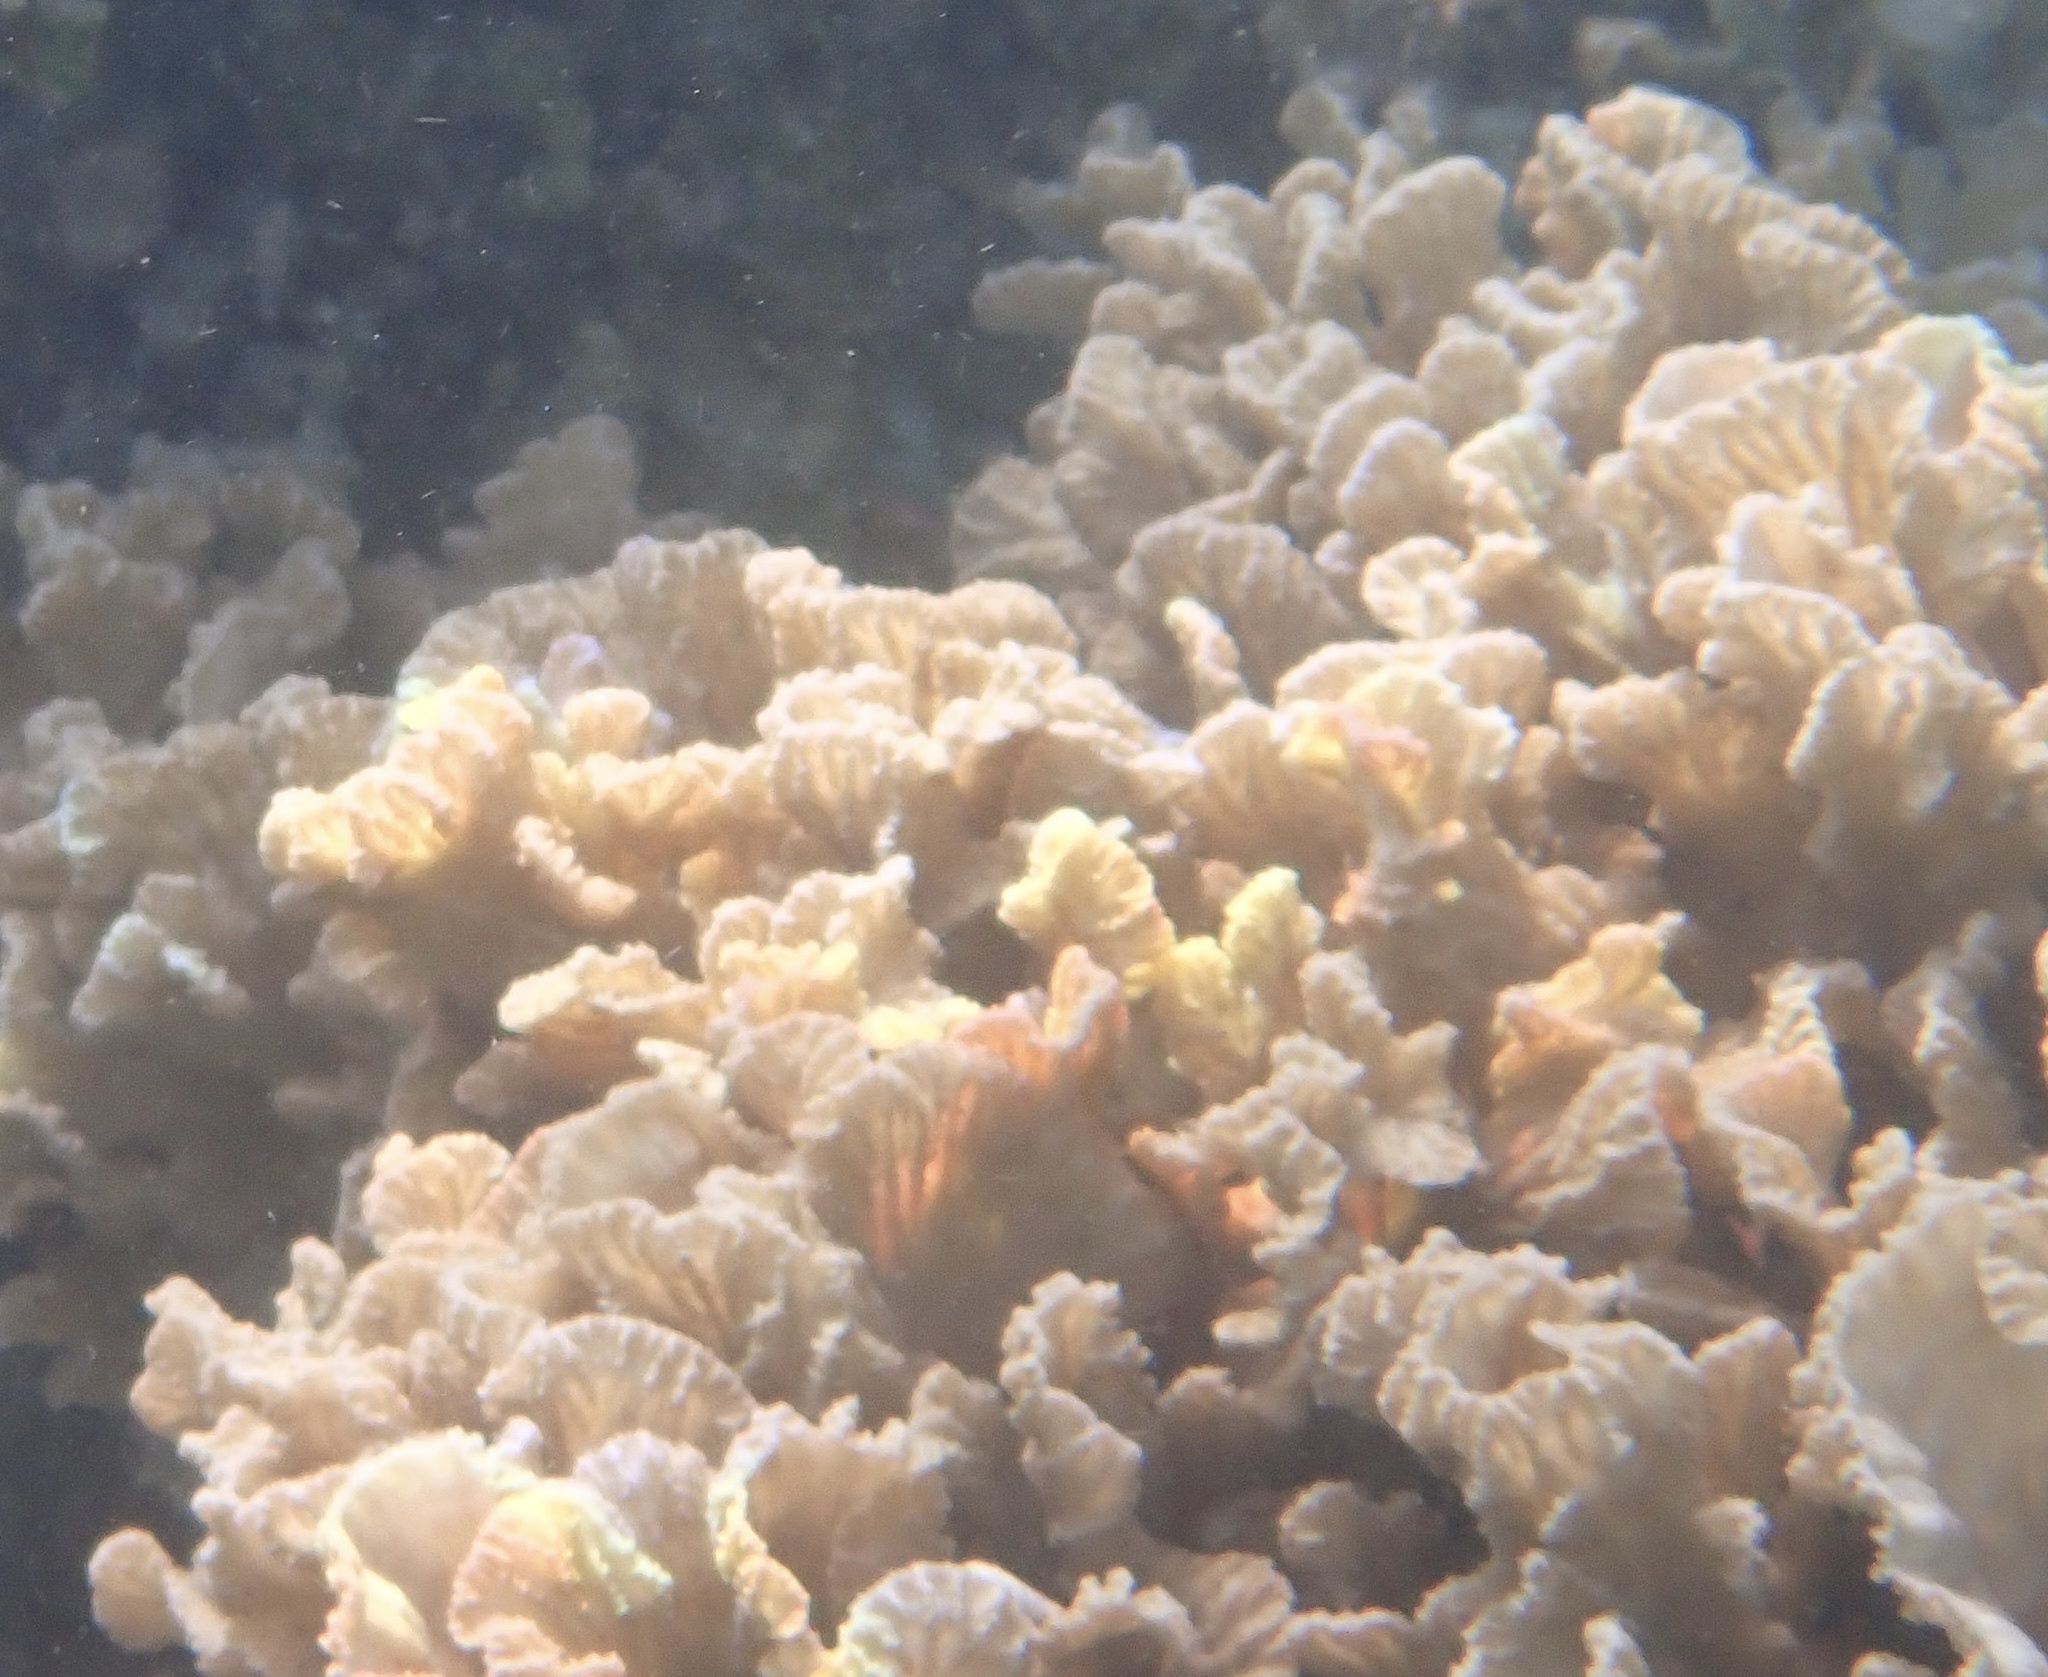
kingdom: Animalia
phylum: Cnidaria
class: Anthozoa
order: Scleractinia
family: Merulinidae
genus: Merulina
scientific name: Merulina scabricula
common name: Crispy crust coral
